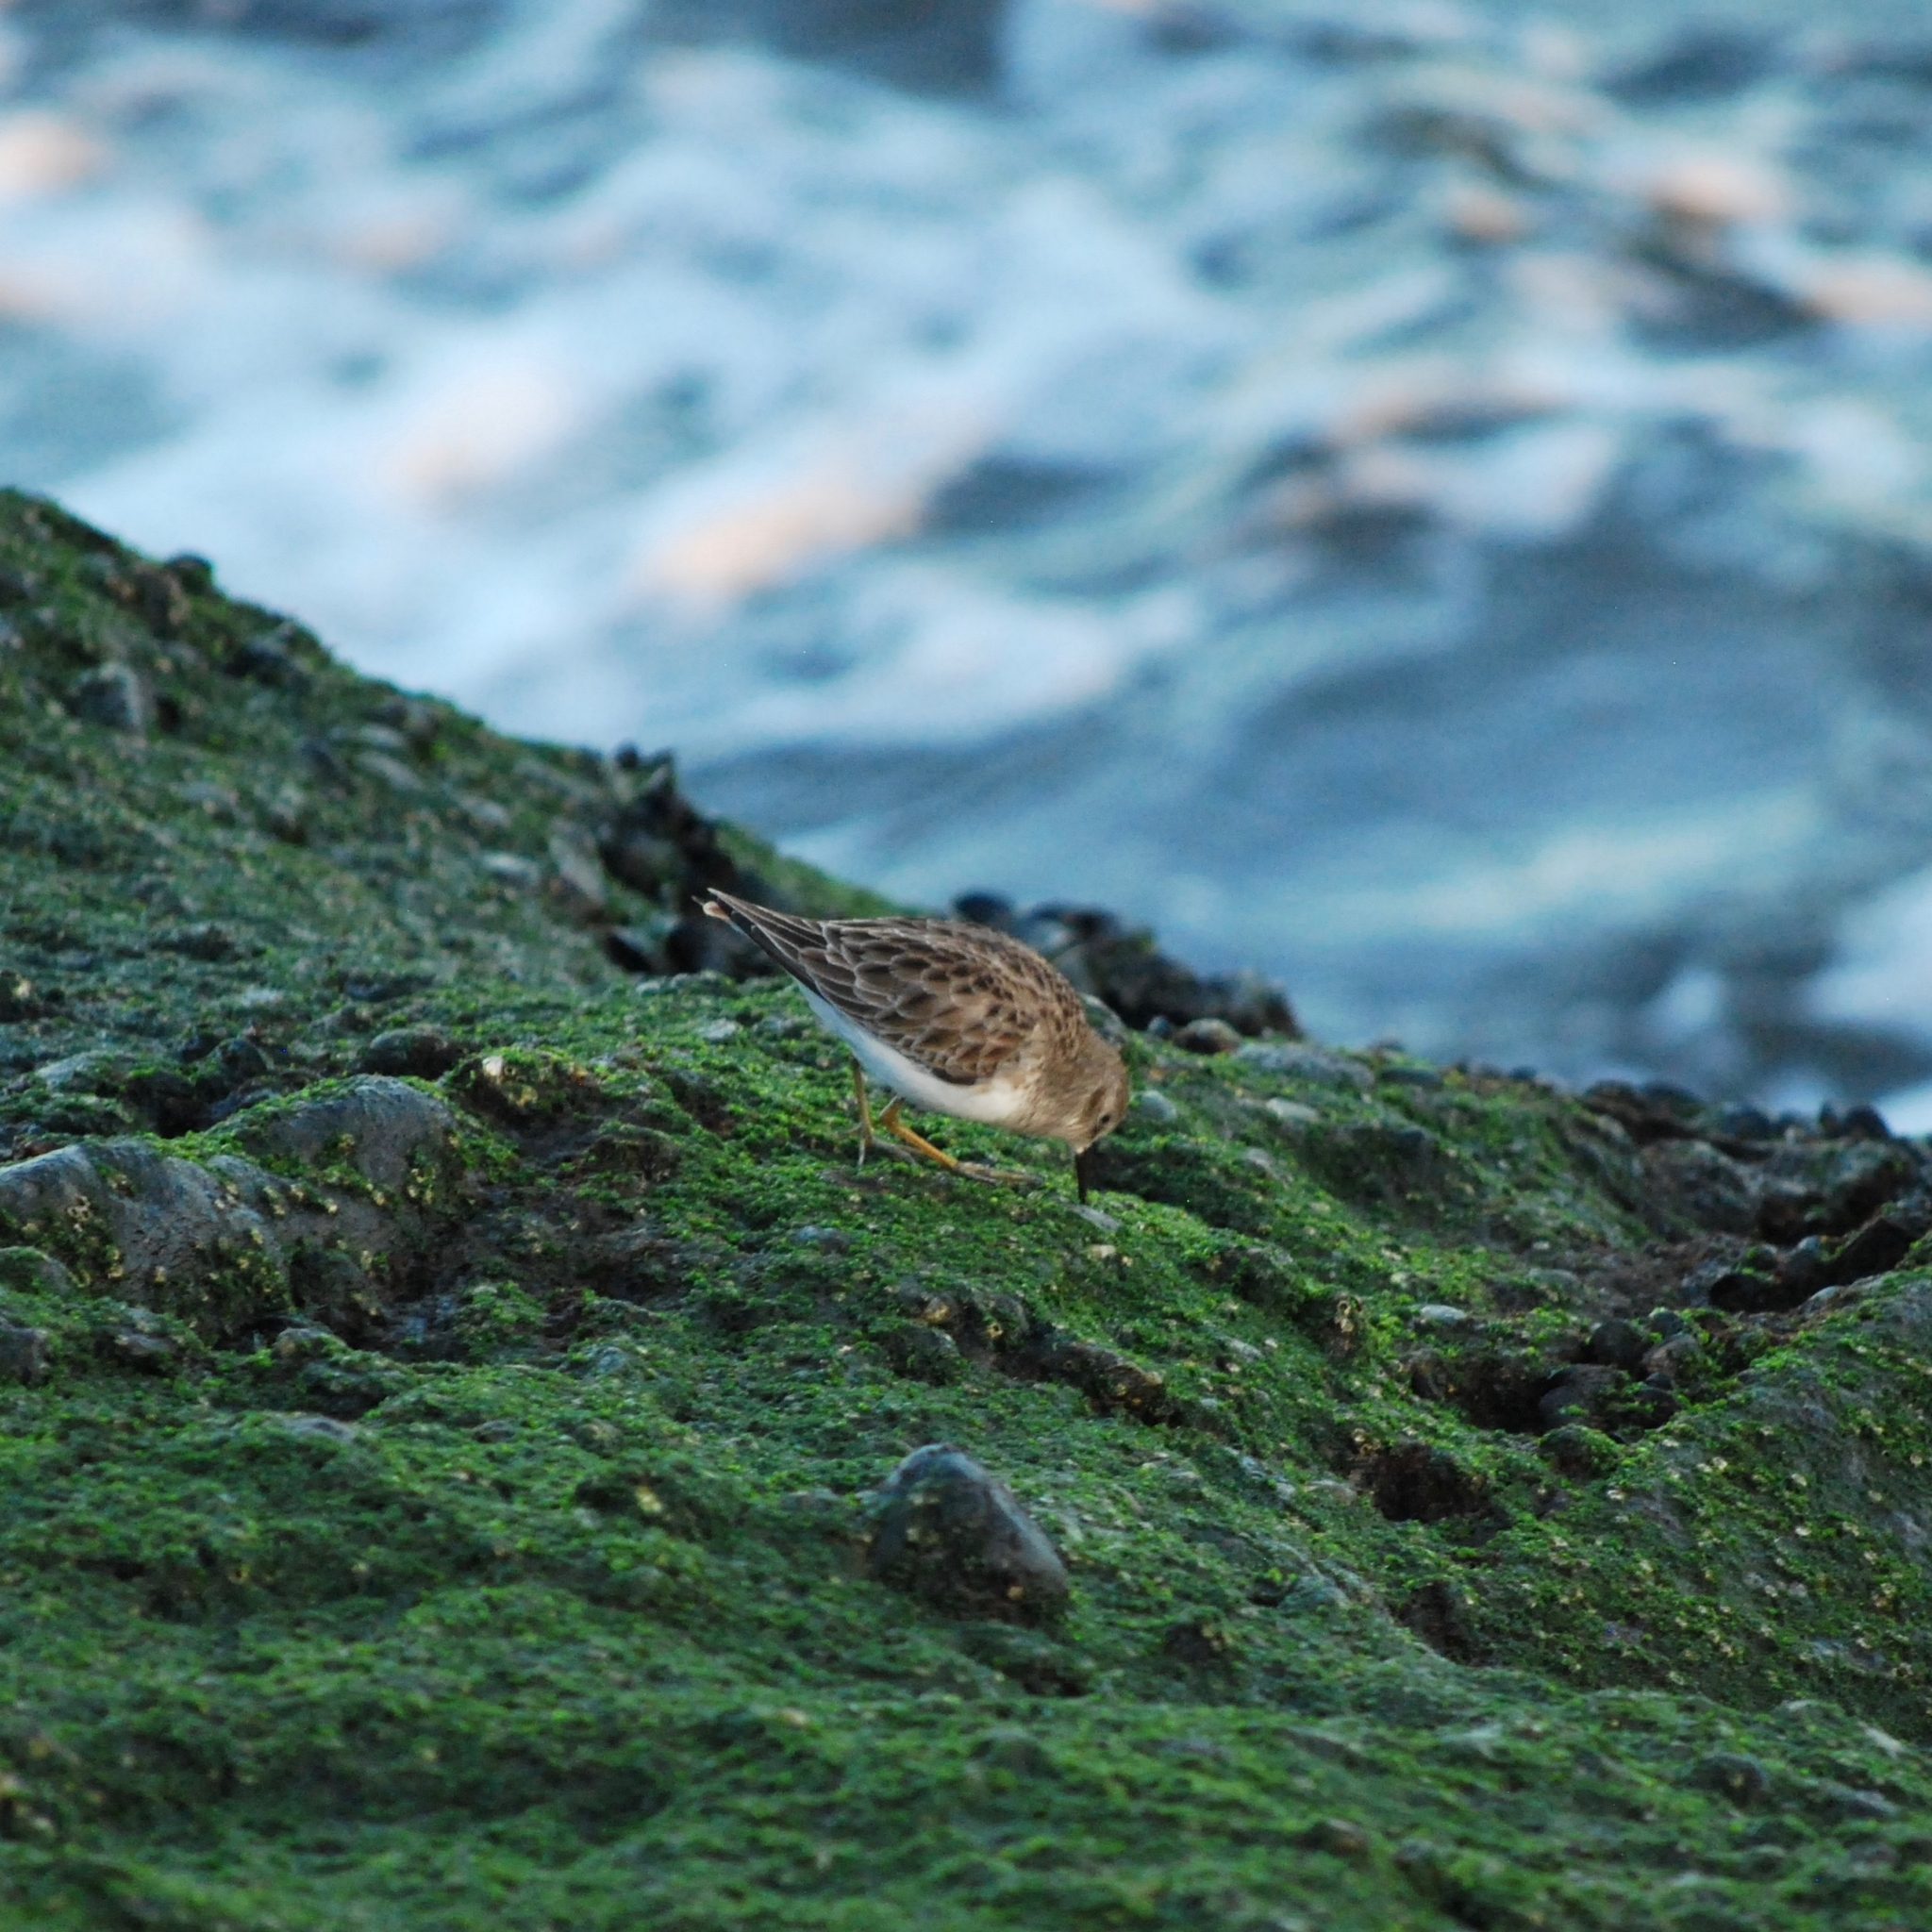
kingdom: Animalia
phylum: Chordata
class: Aves
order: Charadriiformes
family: Scolopacidae
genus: Calidris
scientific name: Calidris minutilla
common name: Least sandpiper
